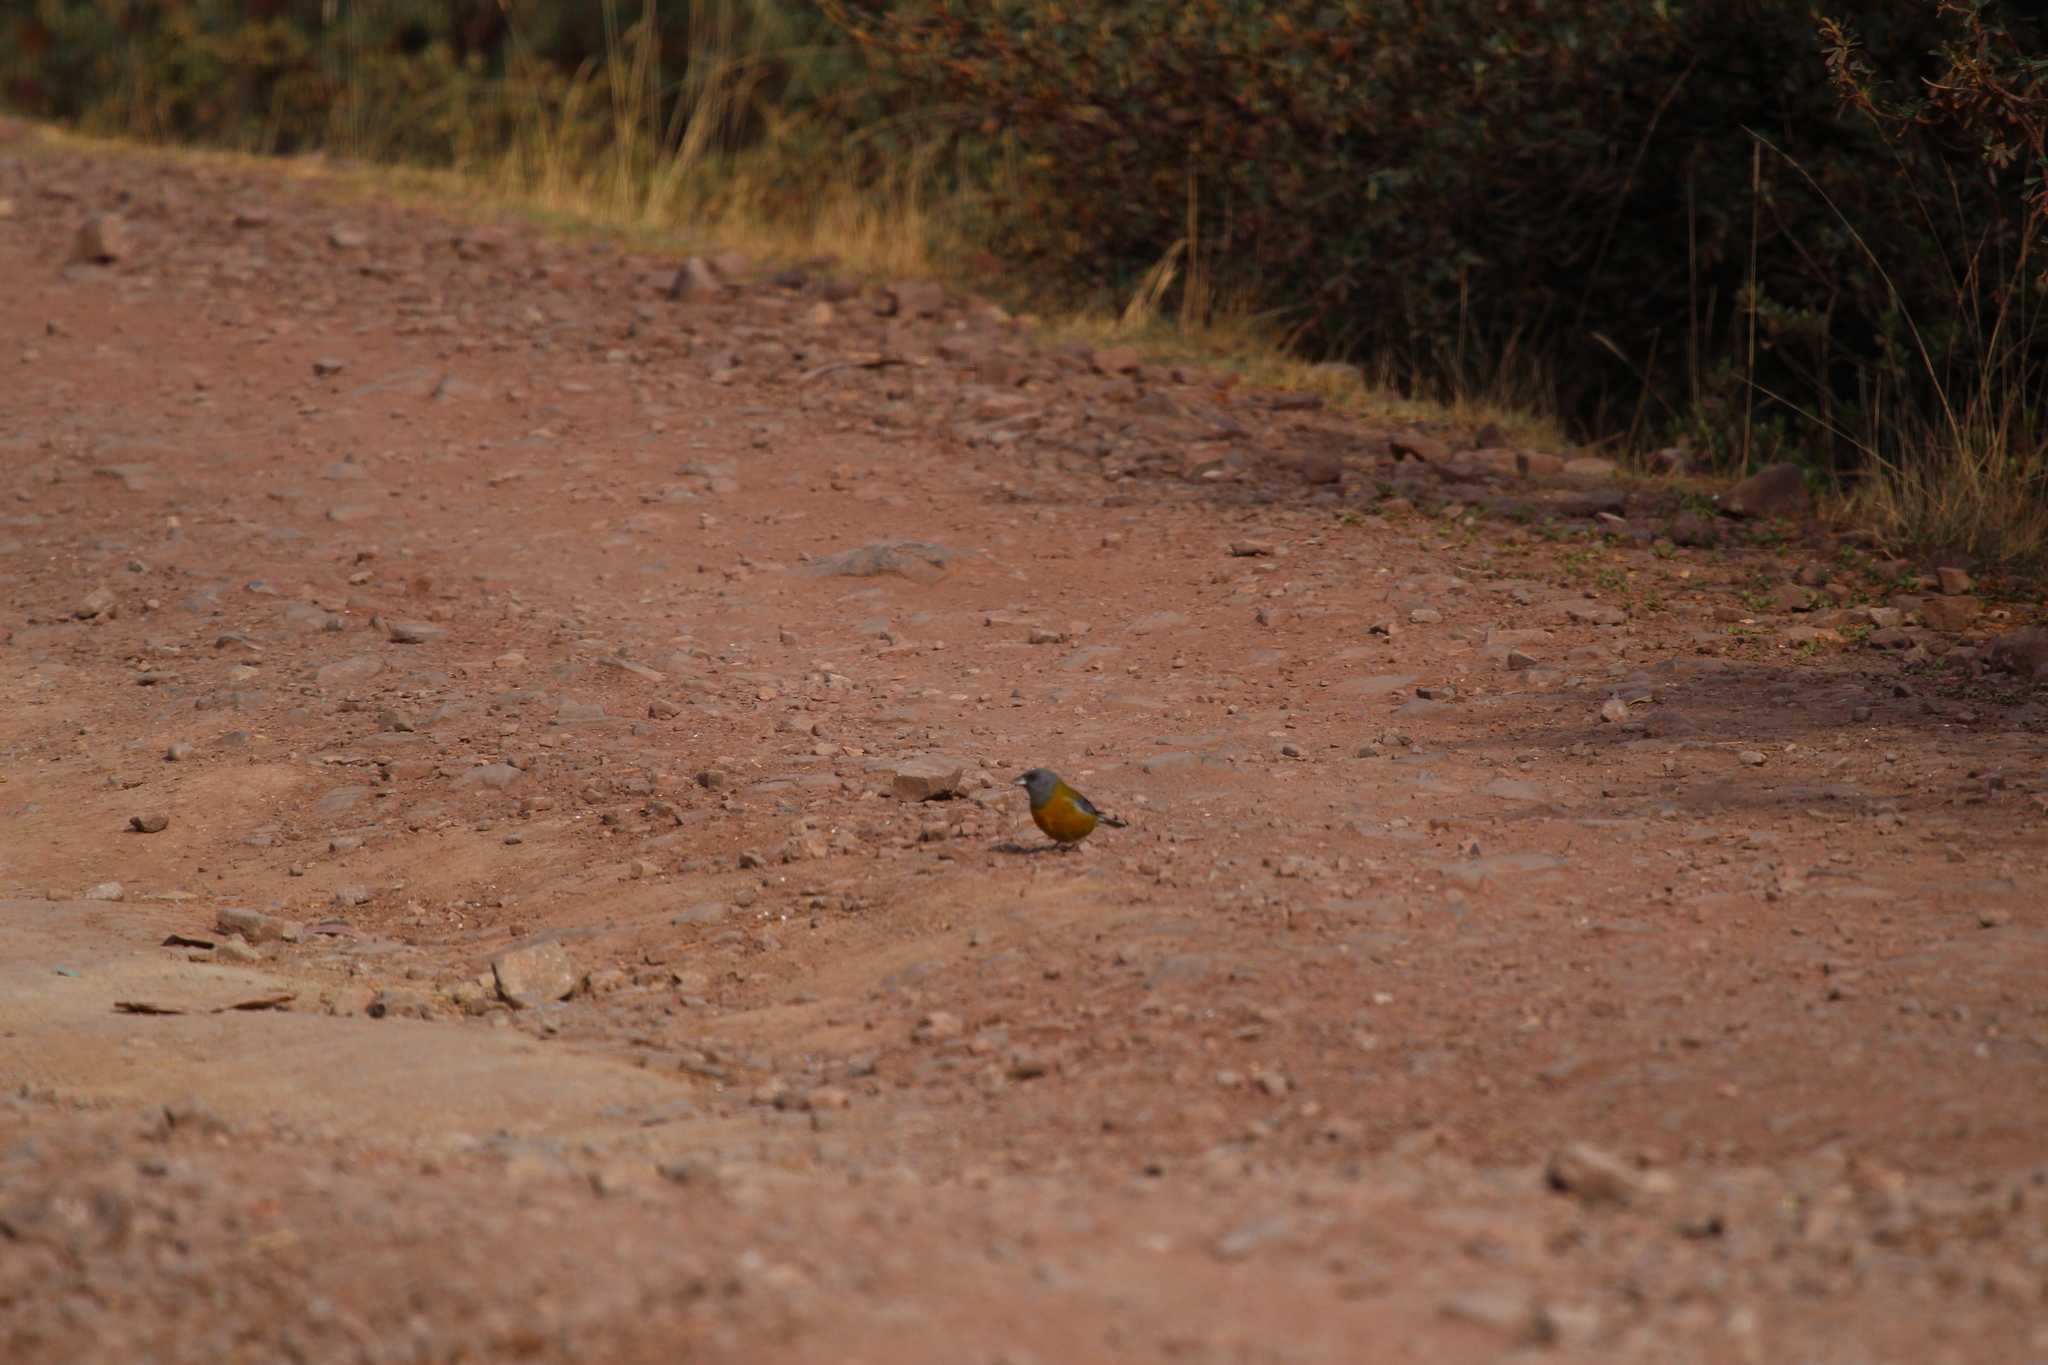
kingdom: Animalia
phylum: Chordata
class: Aves
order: Passeriformes
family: Thraupidae
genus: Phrygilus
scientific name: Phrygilus punensis
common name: Peruvian sierra finch
